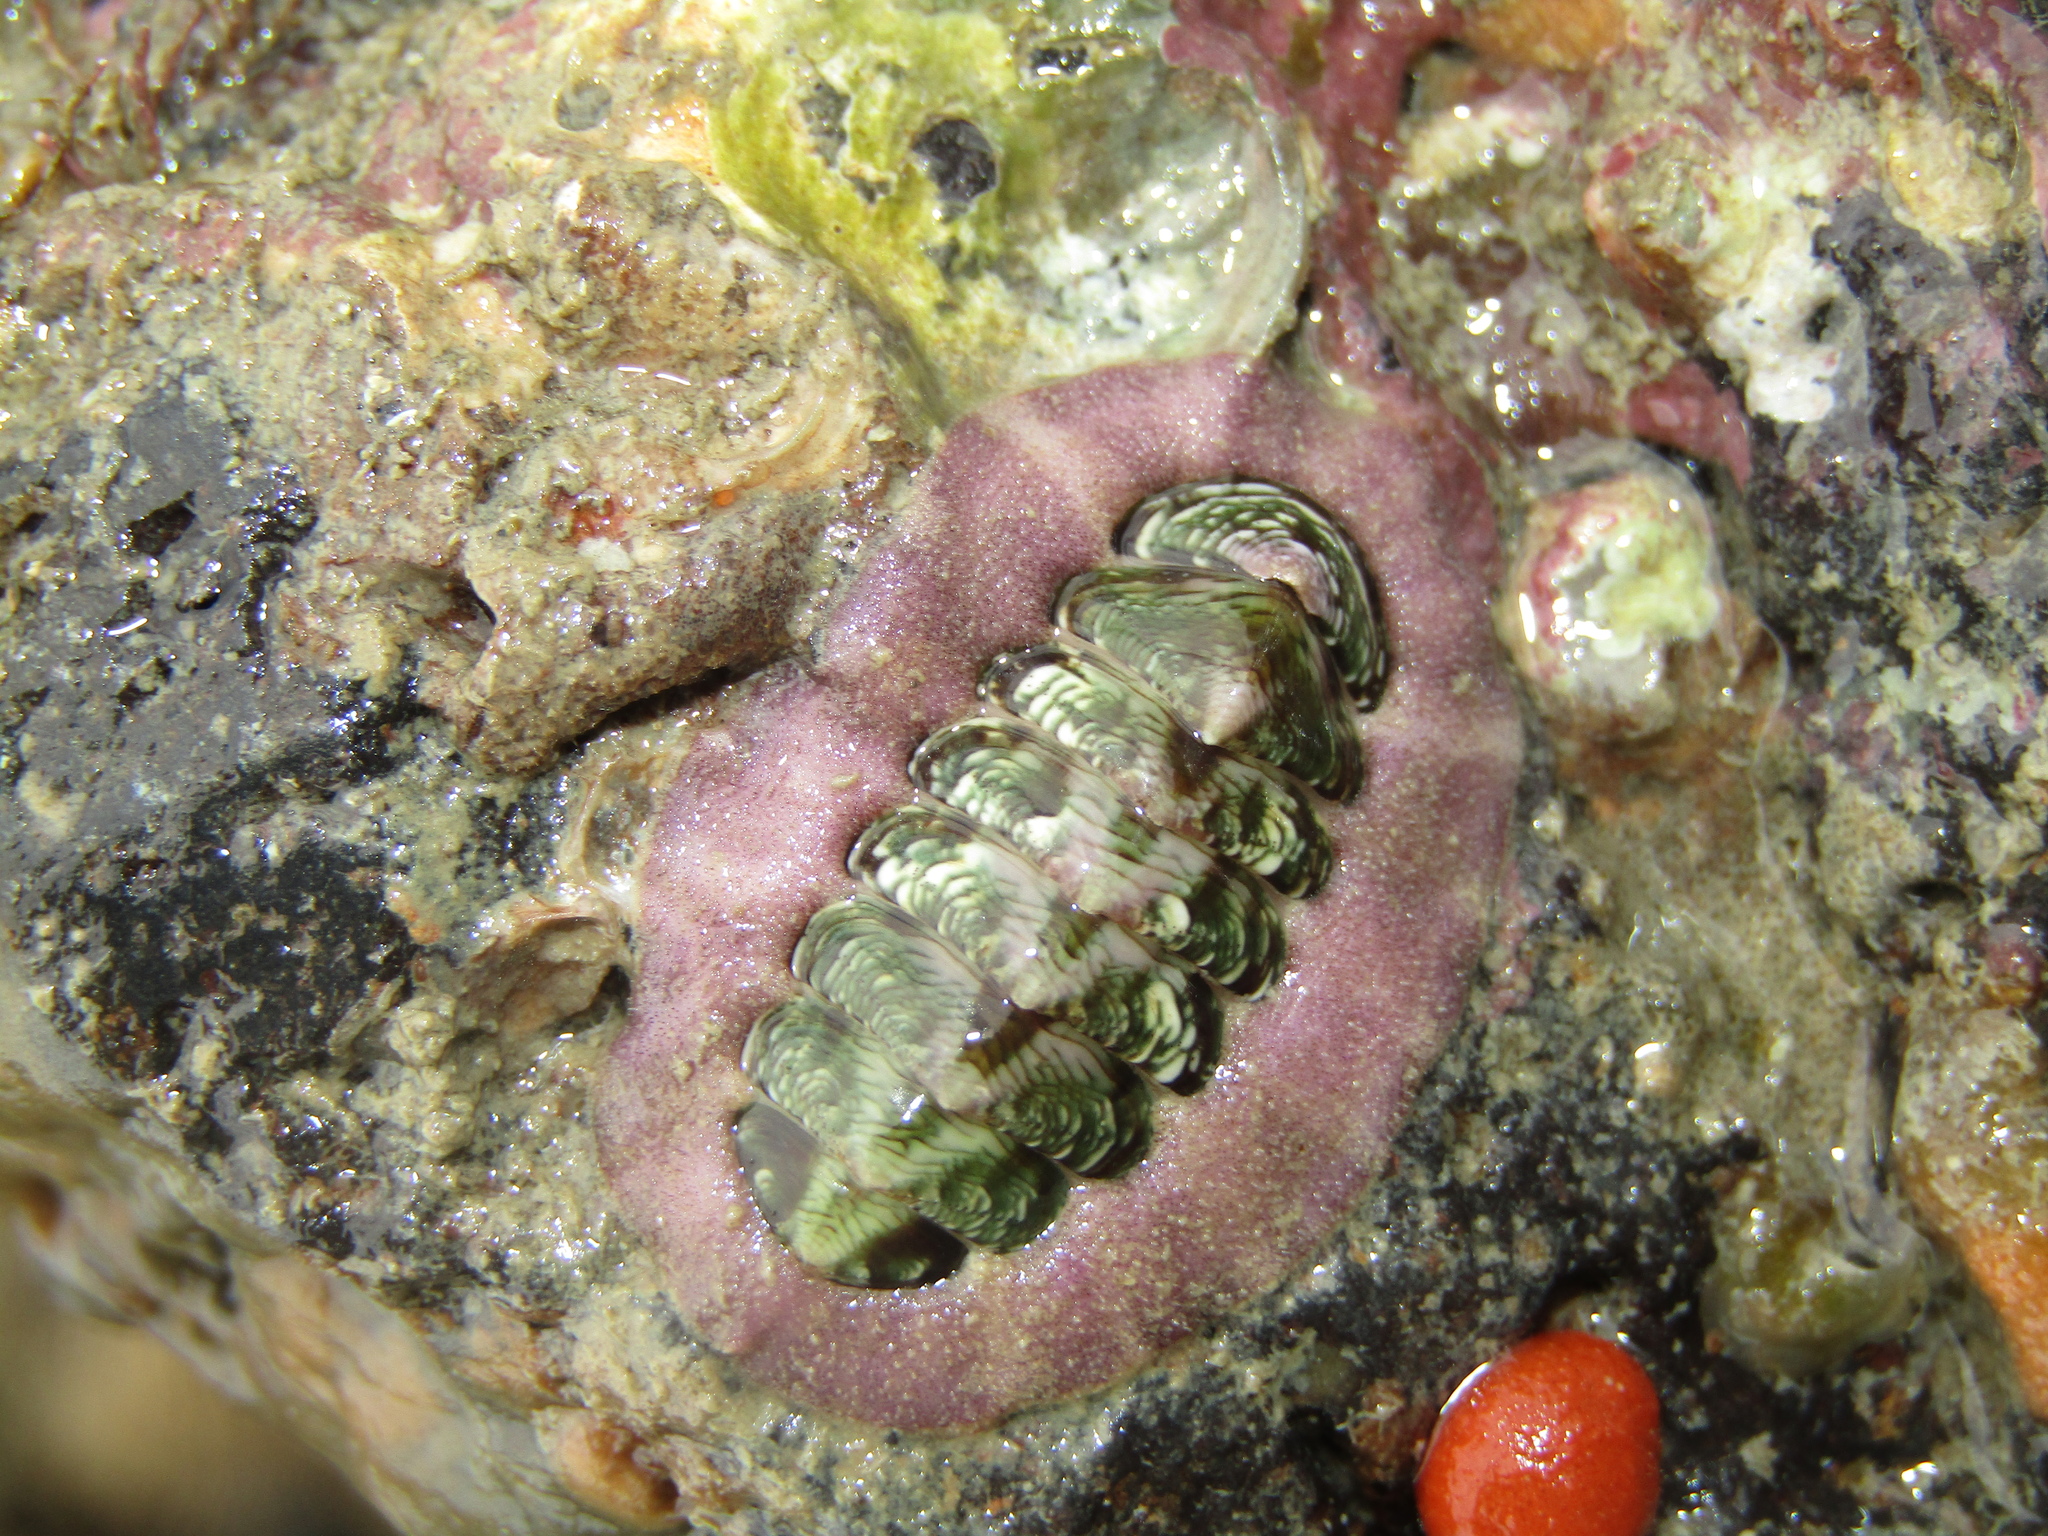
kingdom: Animalia
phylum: Mollusca
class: Polyplacophora
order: Chitonida
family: Chitonidae
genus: Onithochiton
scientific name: Onithochiton neglectus
